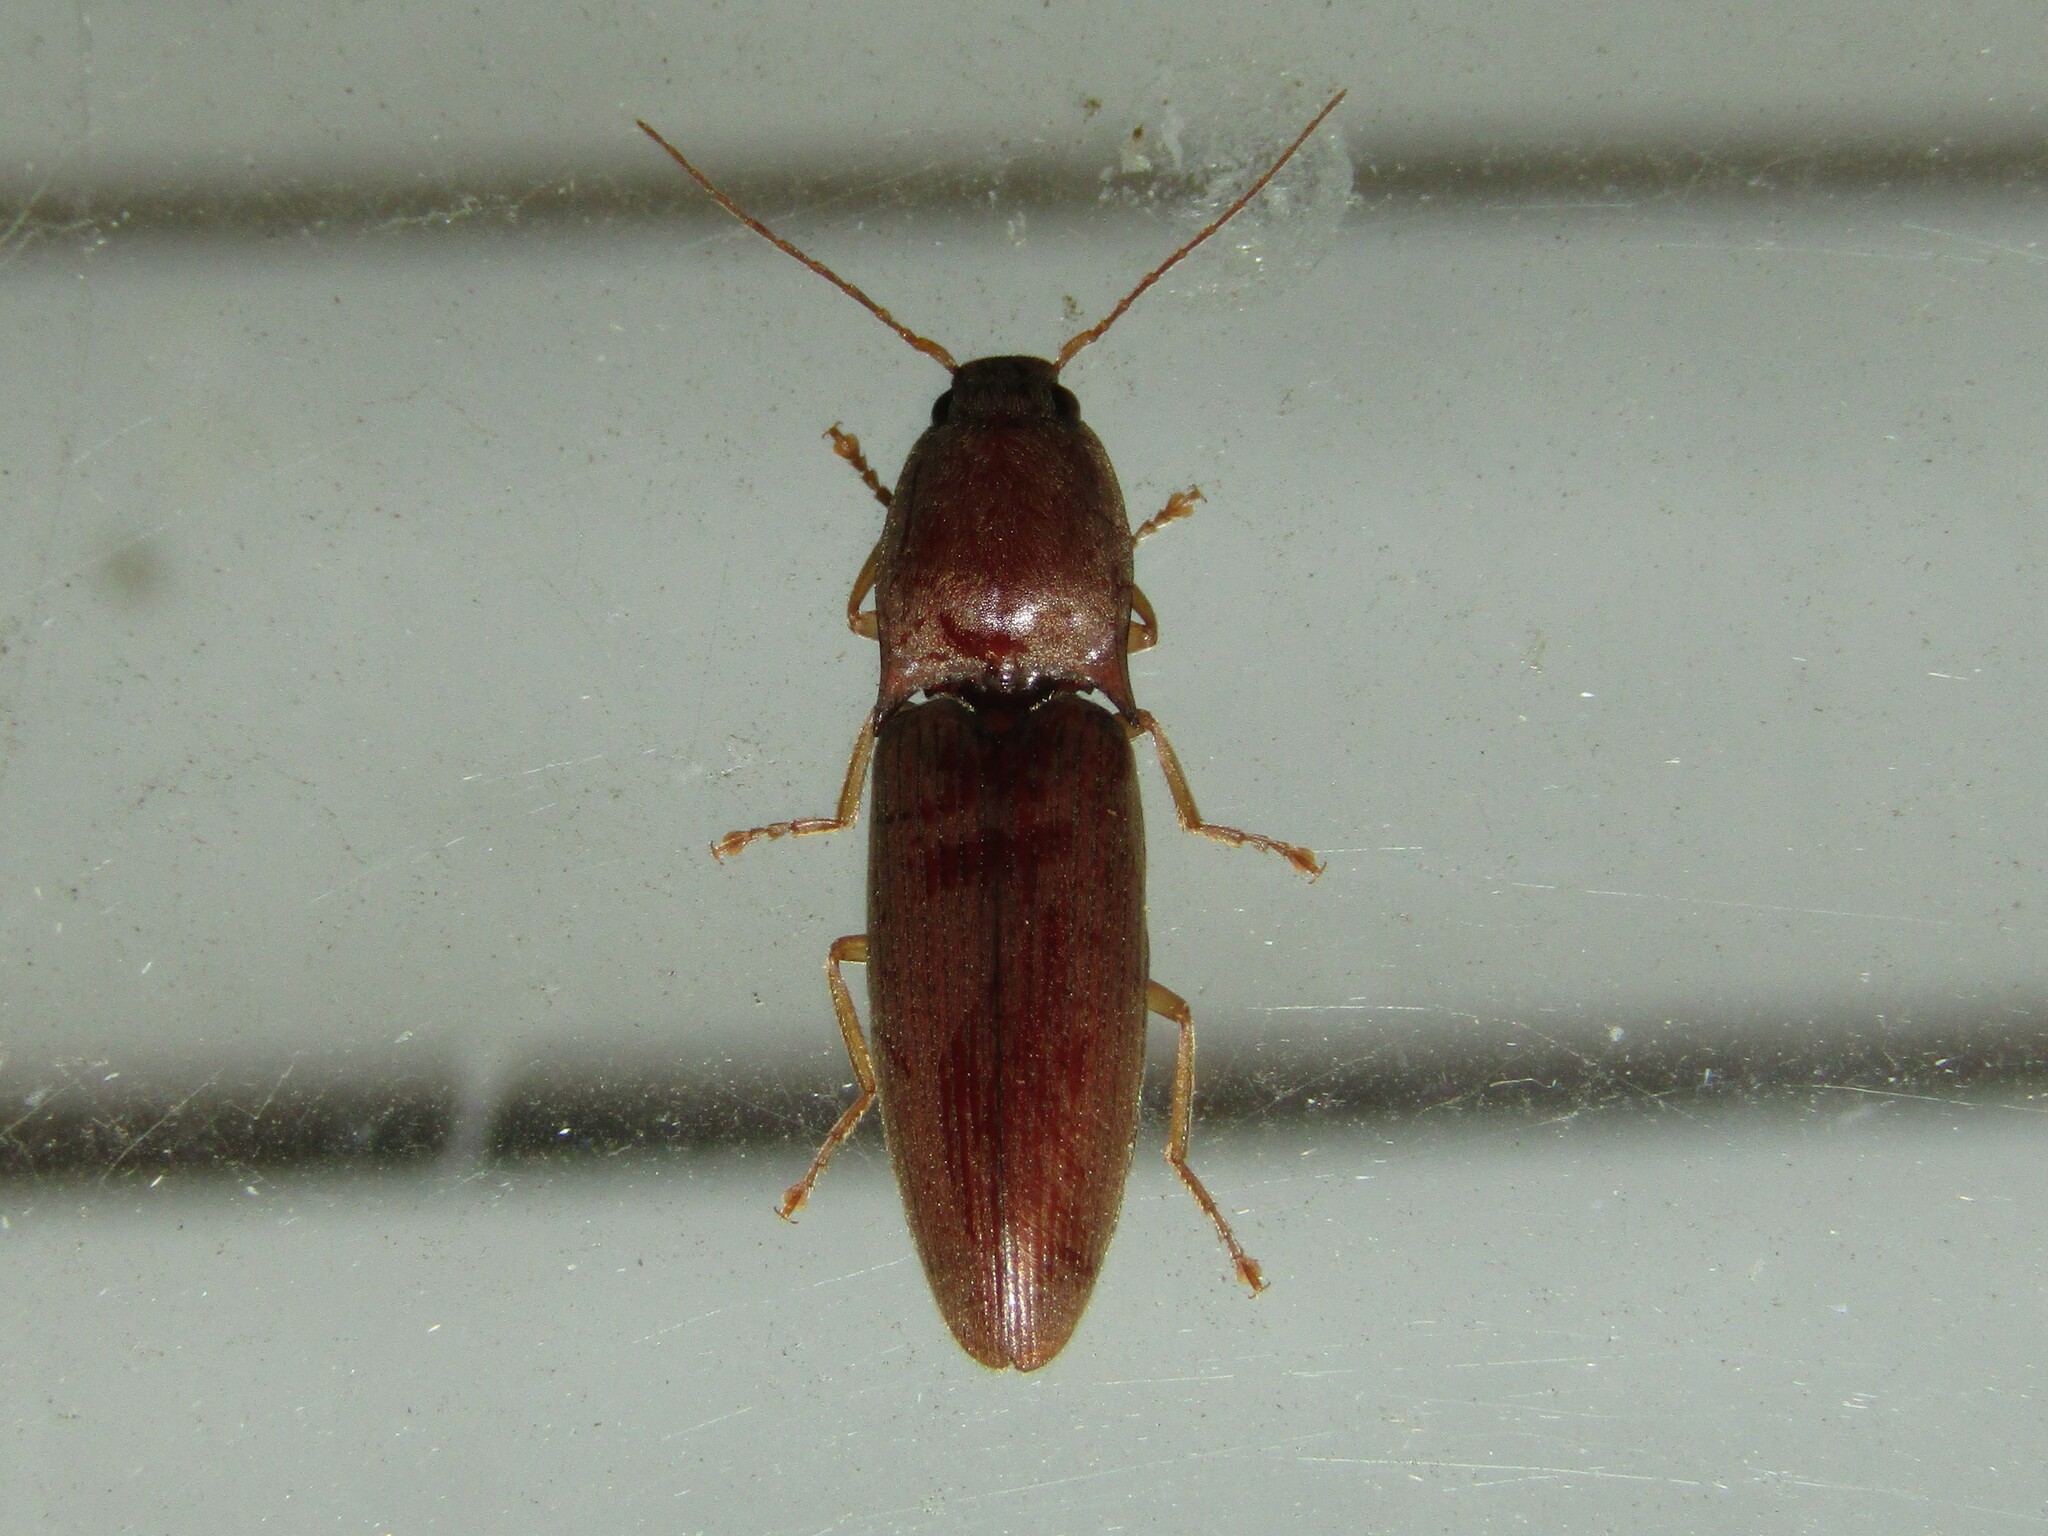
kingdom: Animalia
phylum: Arthropoda
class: Insecta
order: Coleoptera
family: Elateridae
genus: Monocrepidius
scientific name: Monocrepidius lividus
